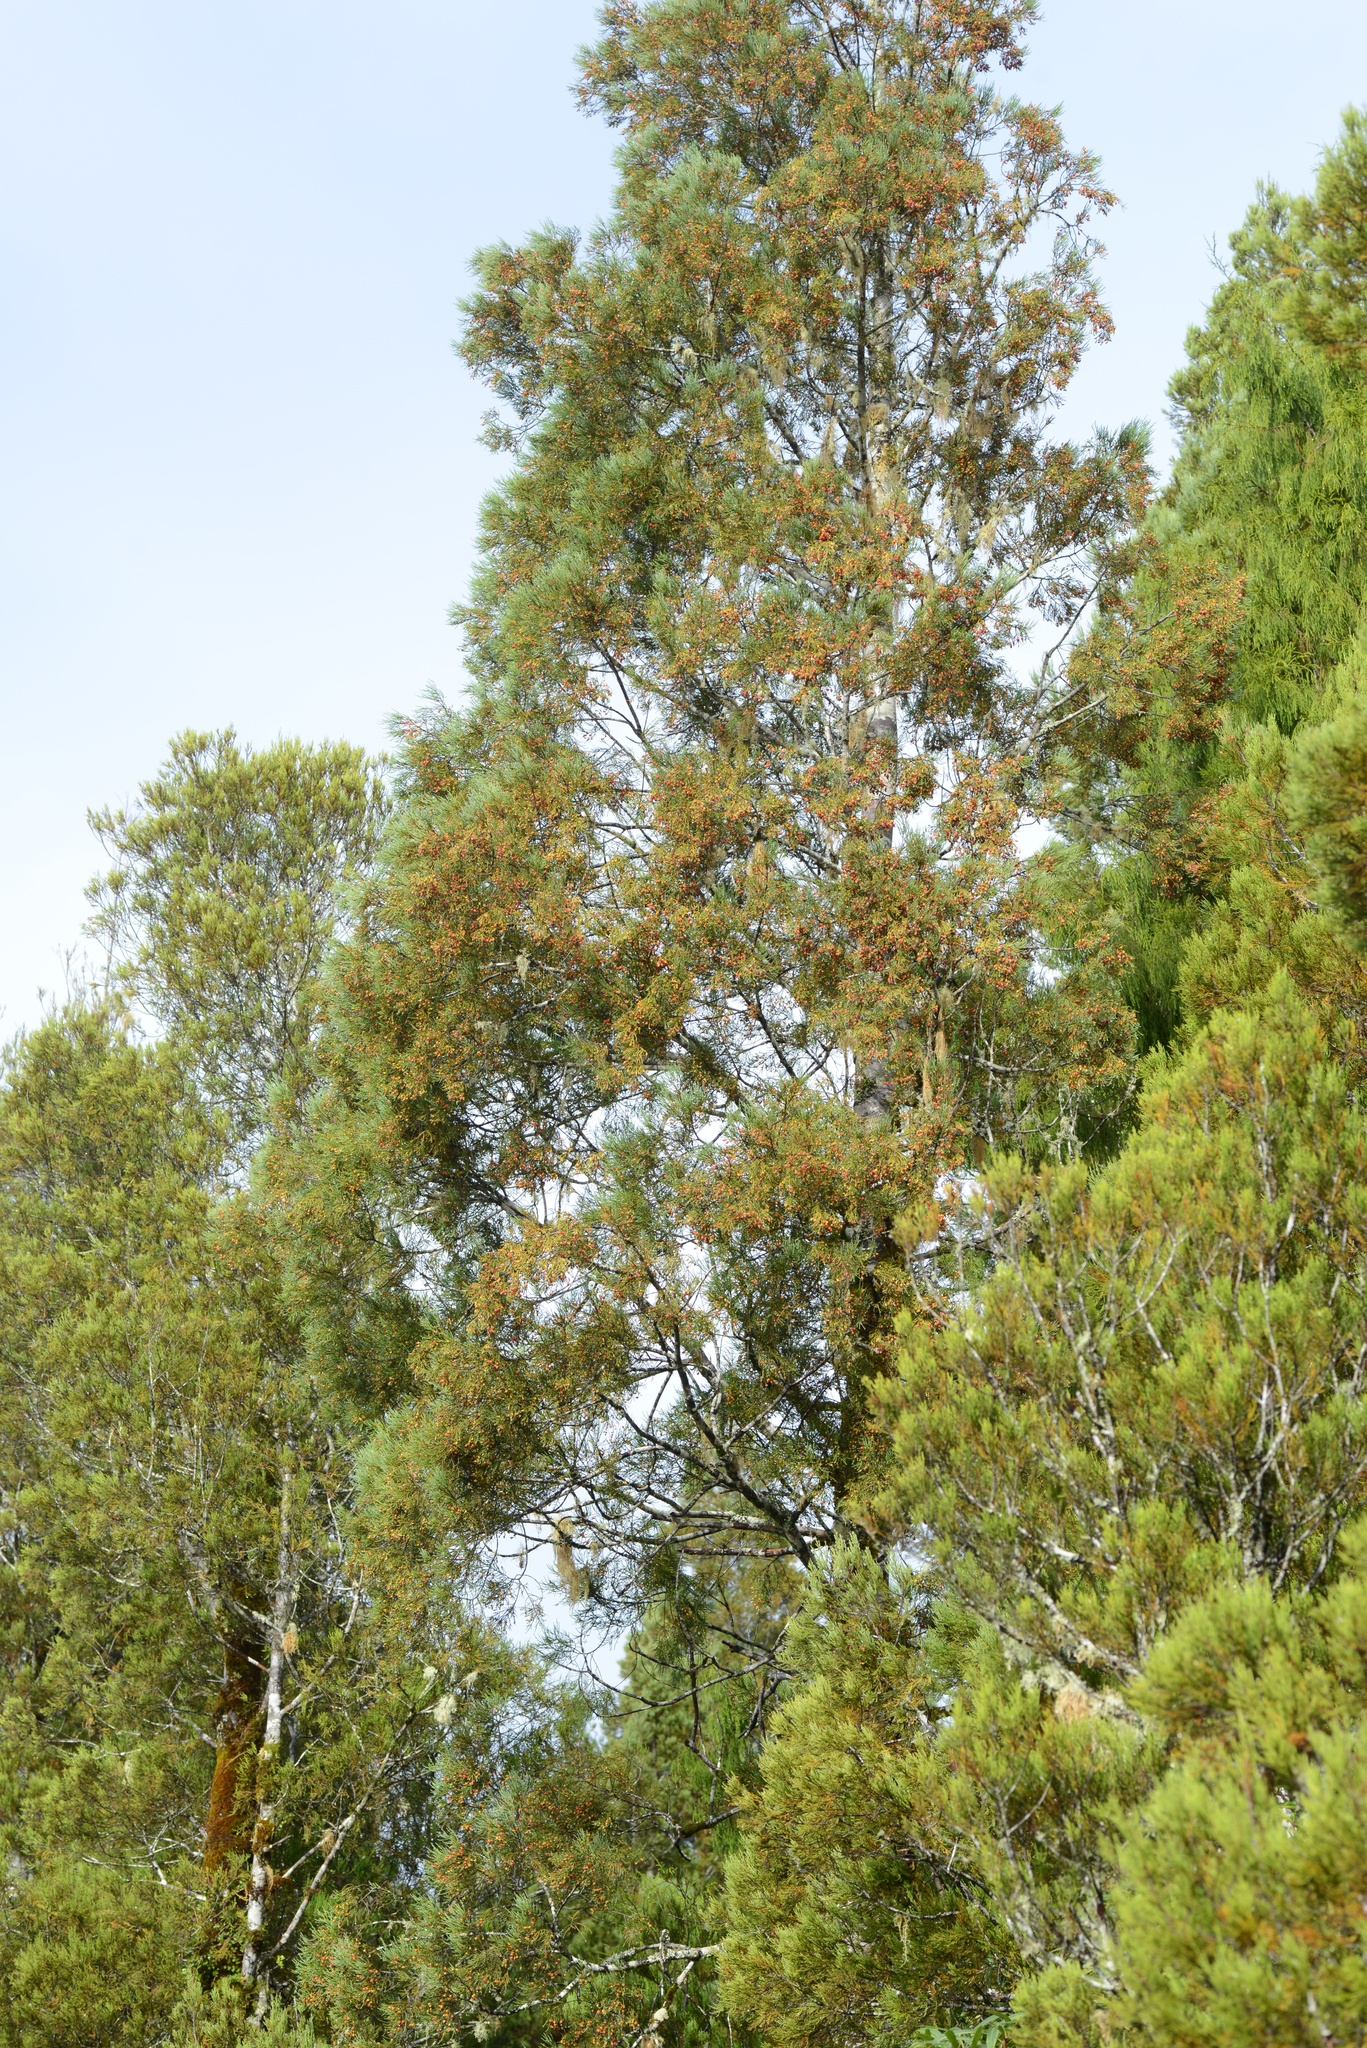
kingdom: Plantae
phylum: Tracheophyta
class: Pinopsida
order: Pinales
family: Podocarpaceae
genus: Dacrycarpus
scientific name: Dacrycarpus dacrydioides
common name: White pine
